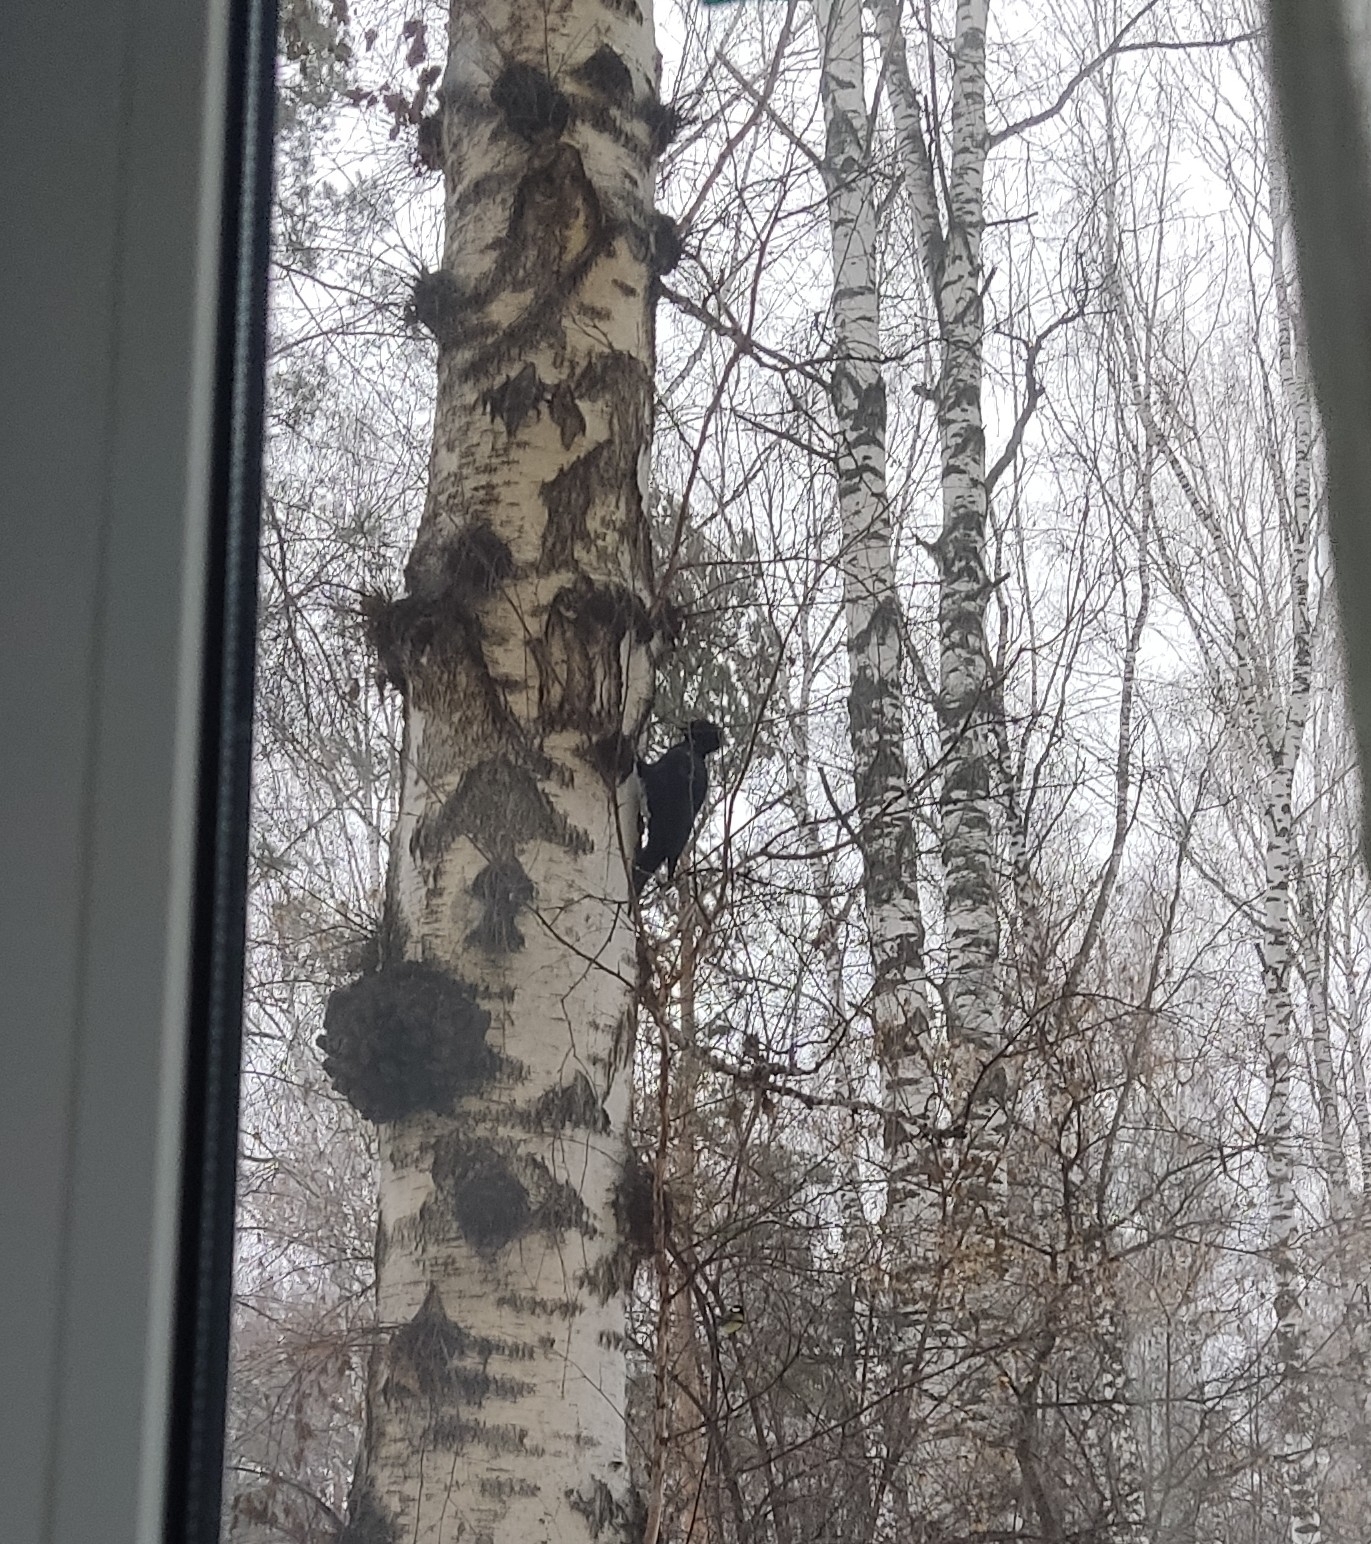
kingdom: Animalia
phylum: Chordata
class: Aves
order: Piciformes
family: Picidae
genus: Dryocopus
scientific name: Dryocopus martius
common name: Black woodpecker
